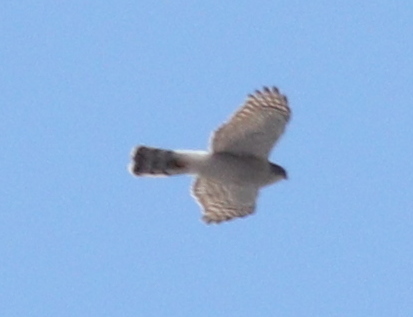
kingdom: Animalia
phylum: Chordata
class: Aves
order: Accipitriformes
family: Accipitridae
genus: Accipiter
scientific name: Accipiter nisus
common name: Eurasian sparrowhawk
